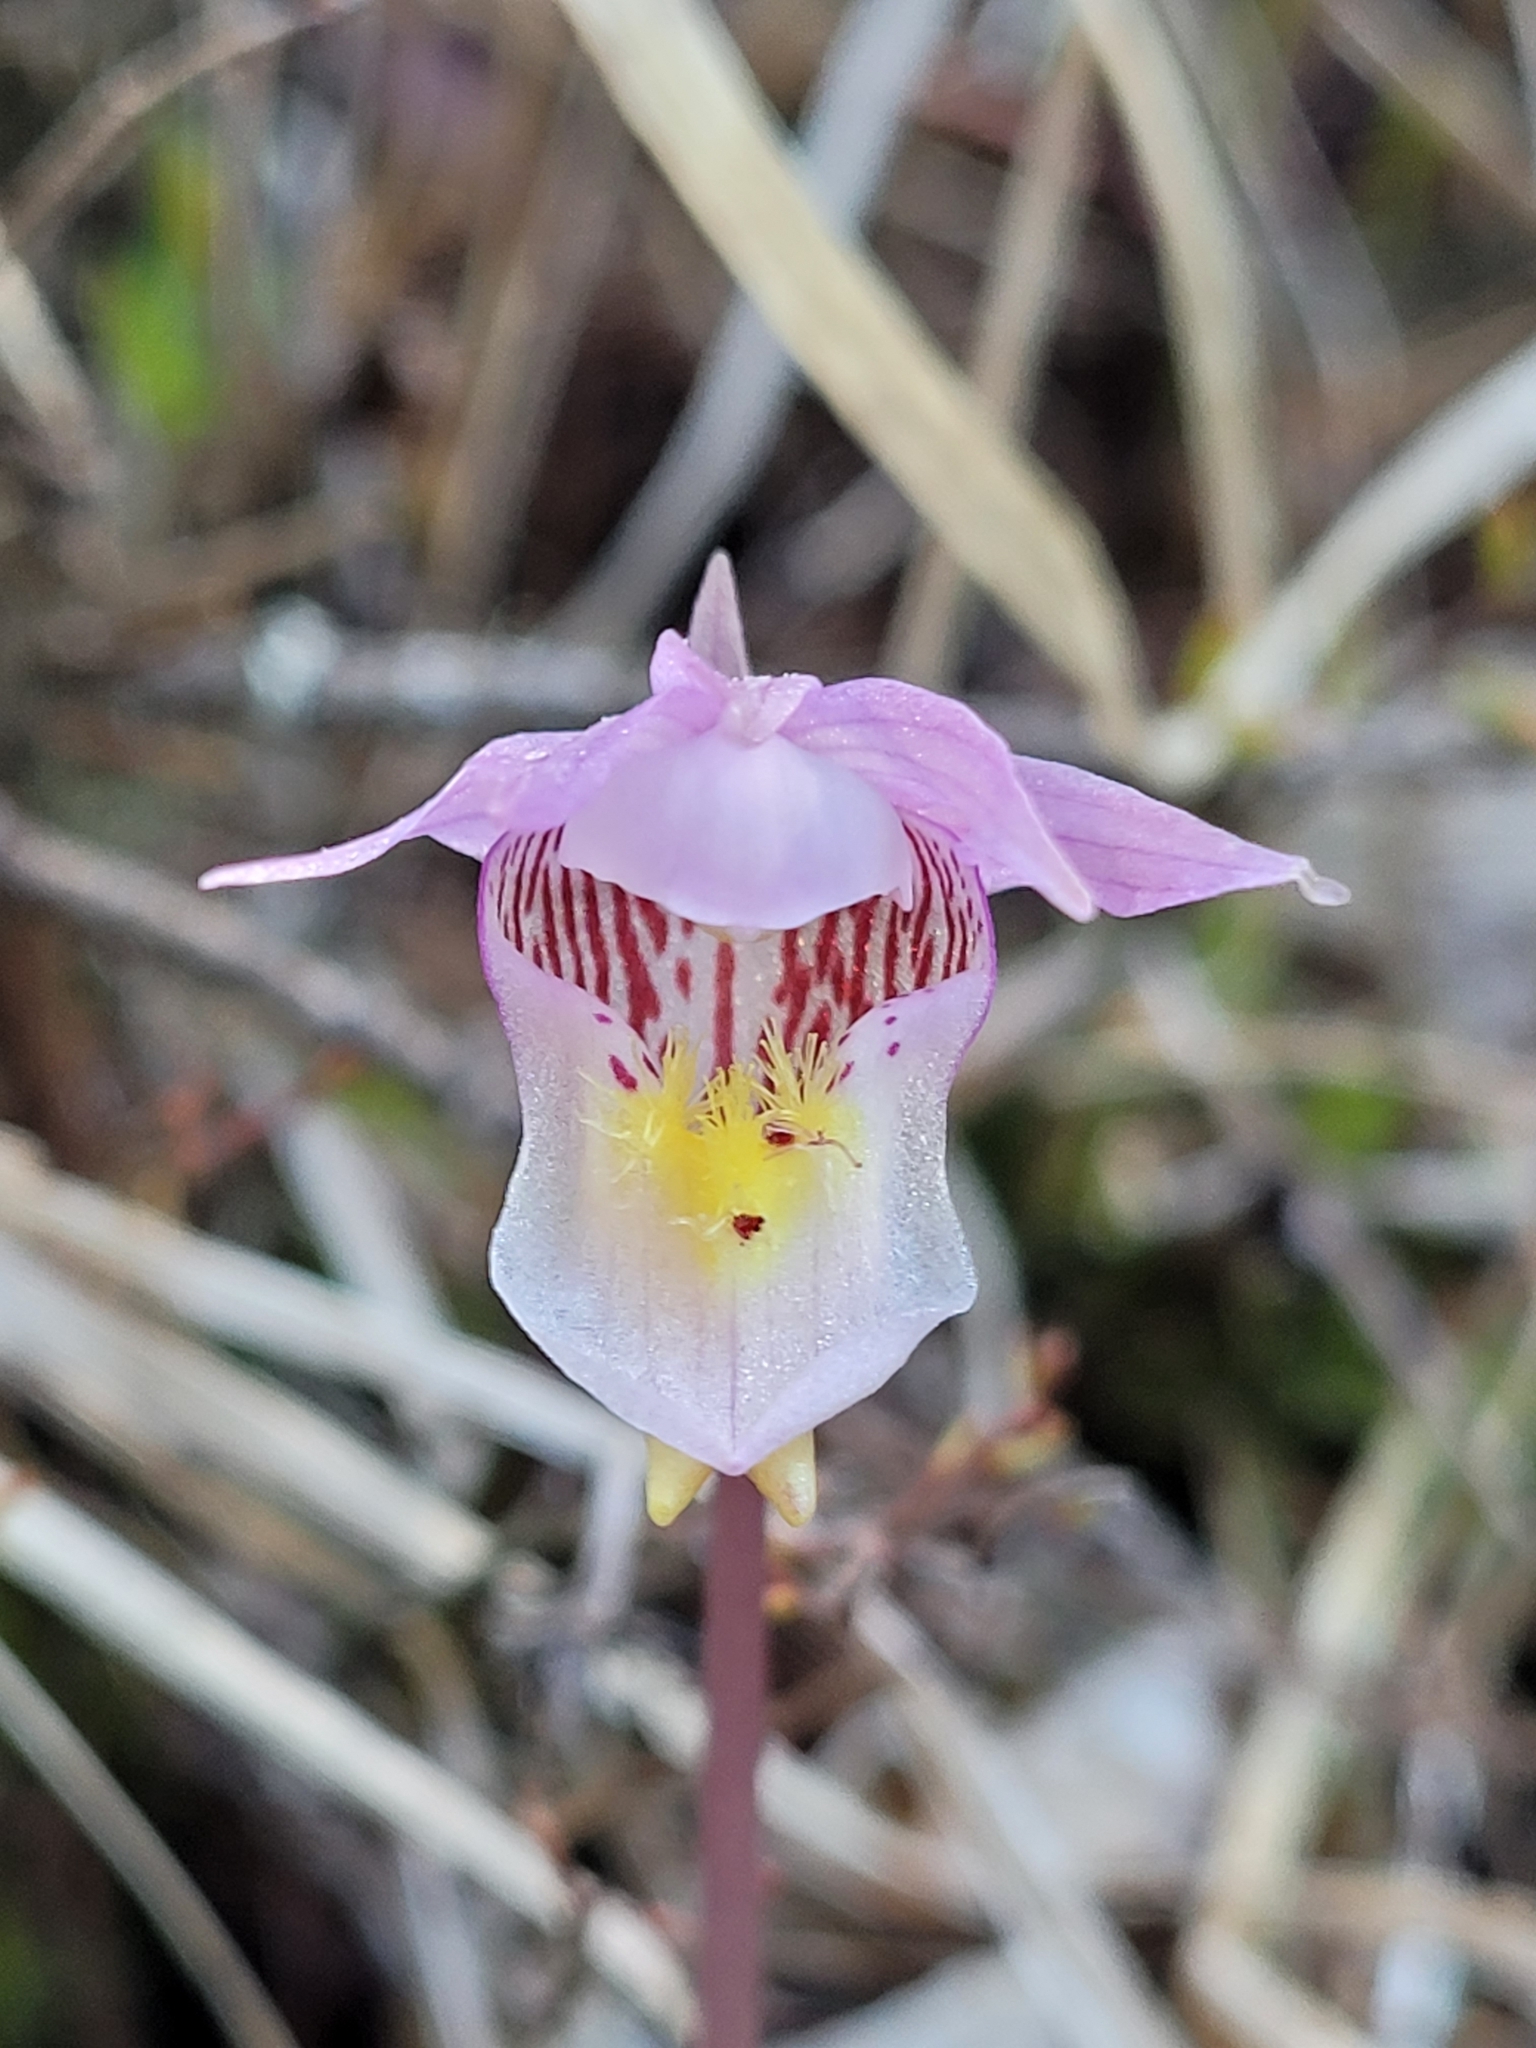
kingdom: Plantae
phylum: Tracheophyta
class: Liliopsida
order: Asparagales
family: Orchidaceae
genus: Calypso
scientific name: Calypso bulbosa
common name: Calypso
